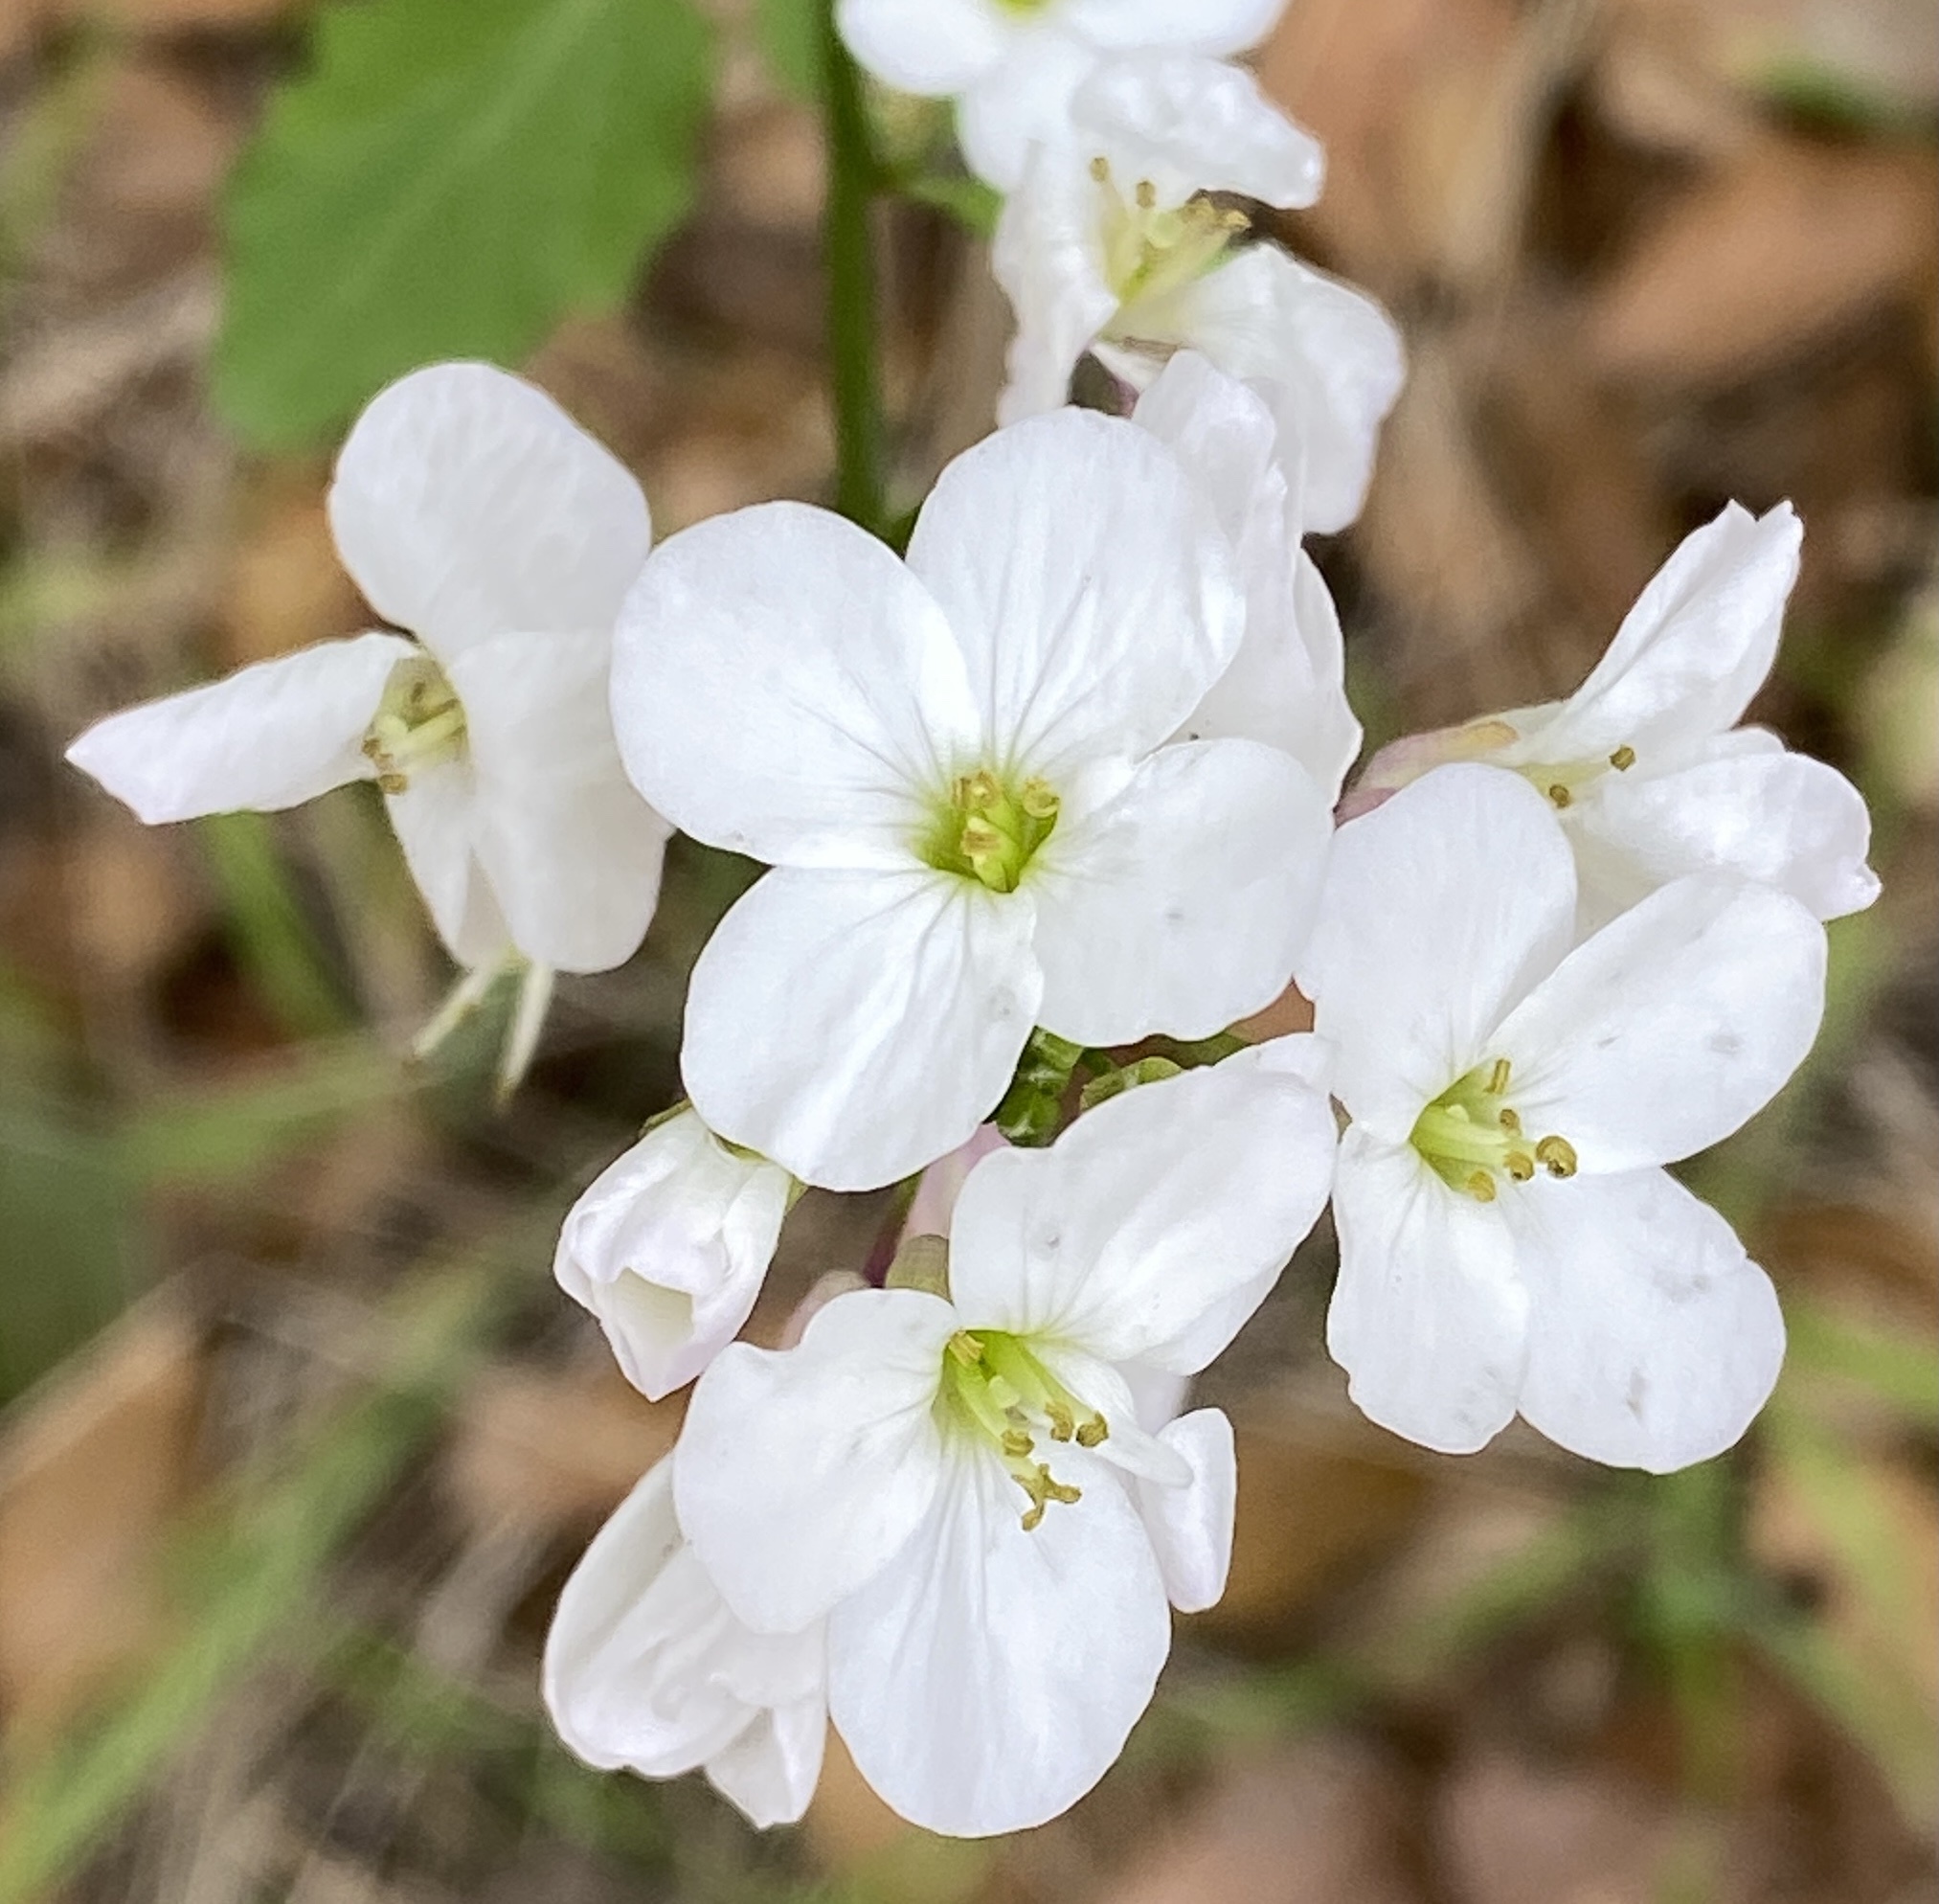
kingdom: Plantae
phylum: Tracheophyta
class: Magnoliopsida
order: Brassicales
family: Brassicaceae
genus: Cardamine
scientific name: Cardamine californica
